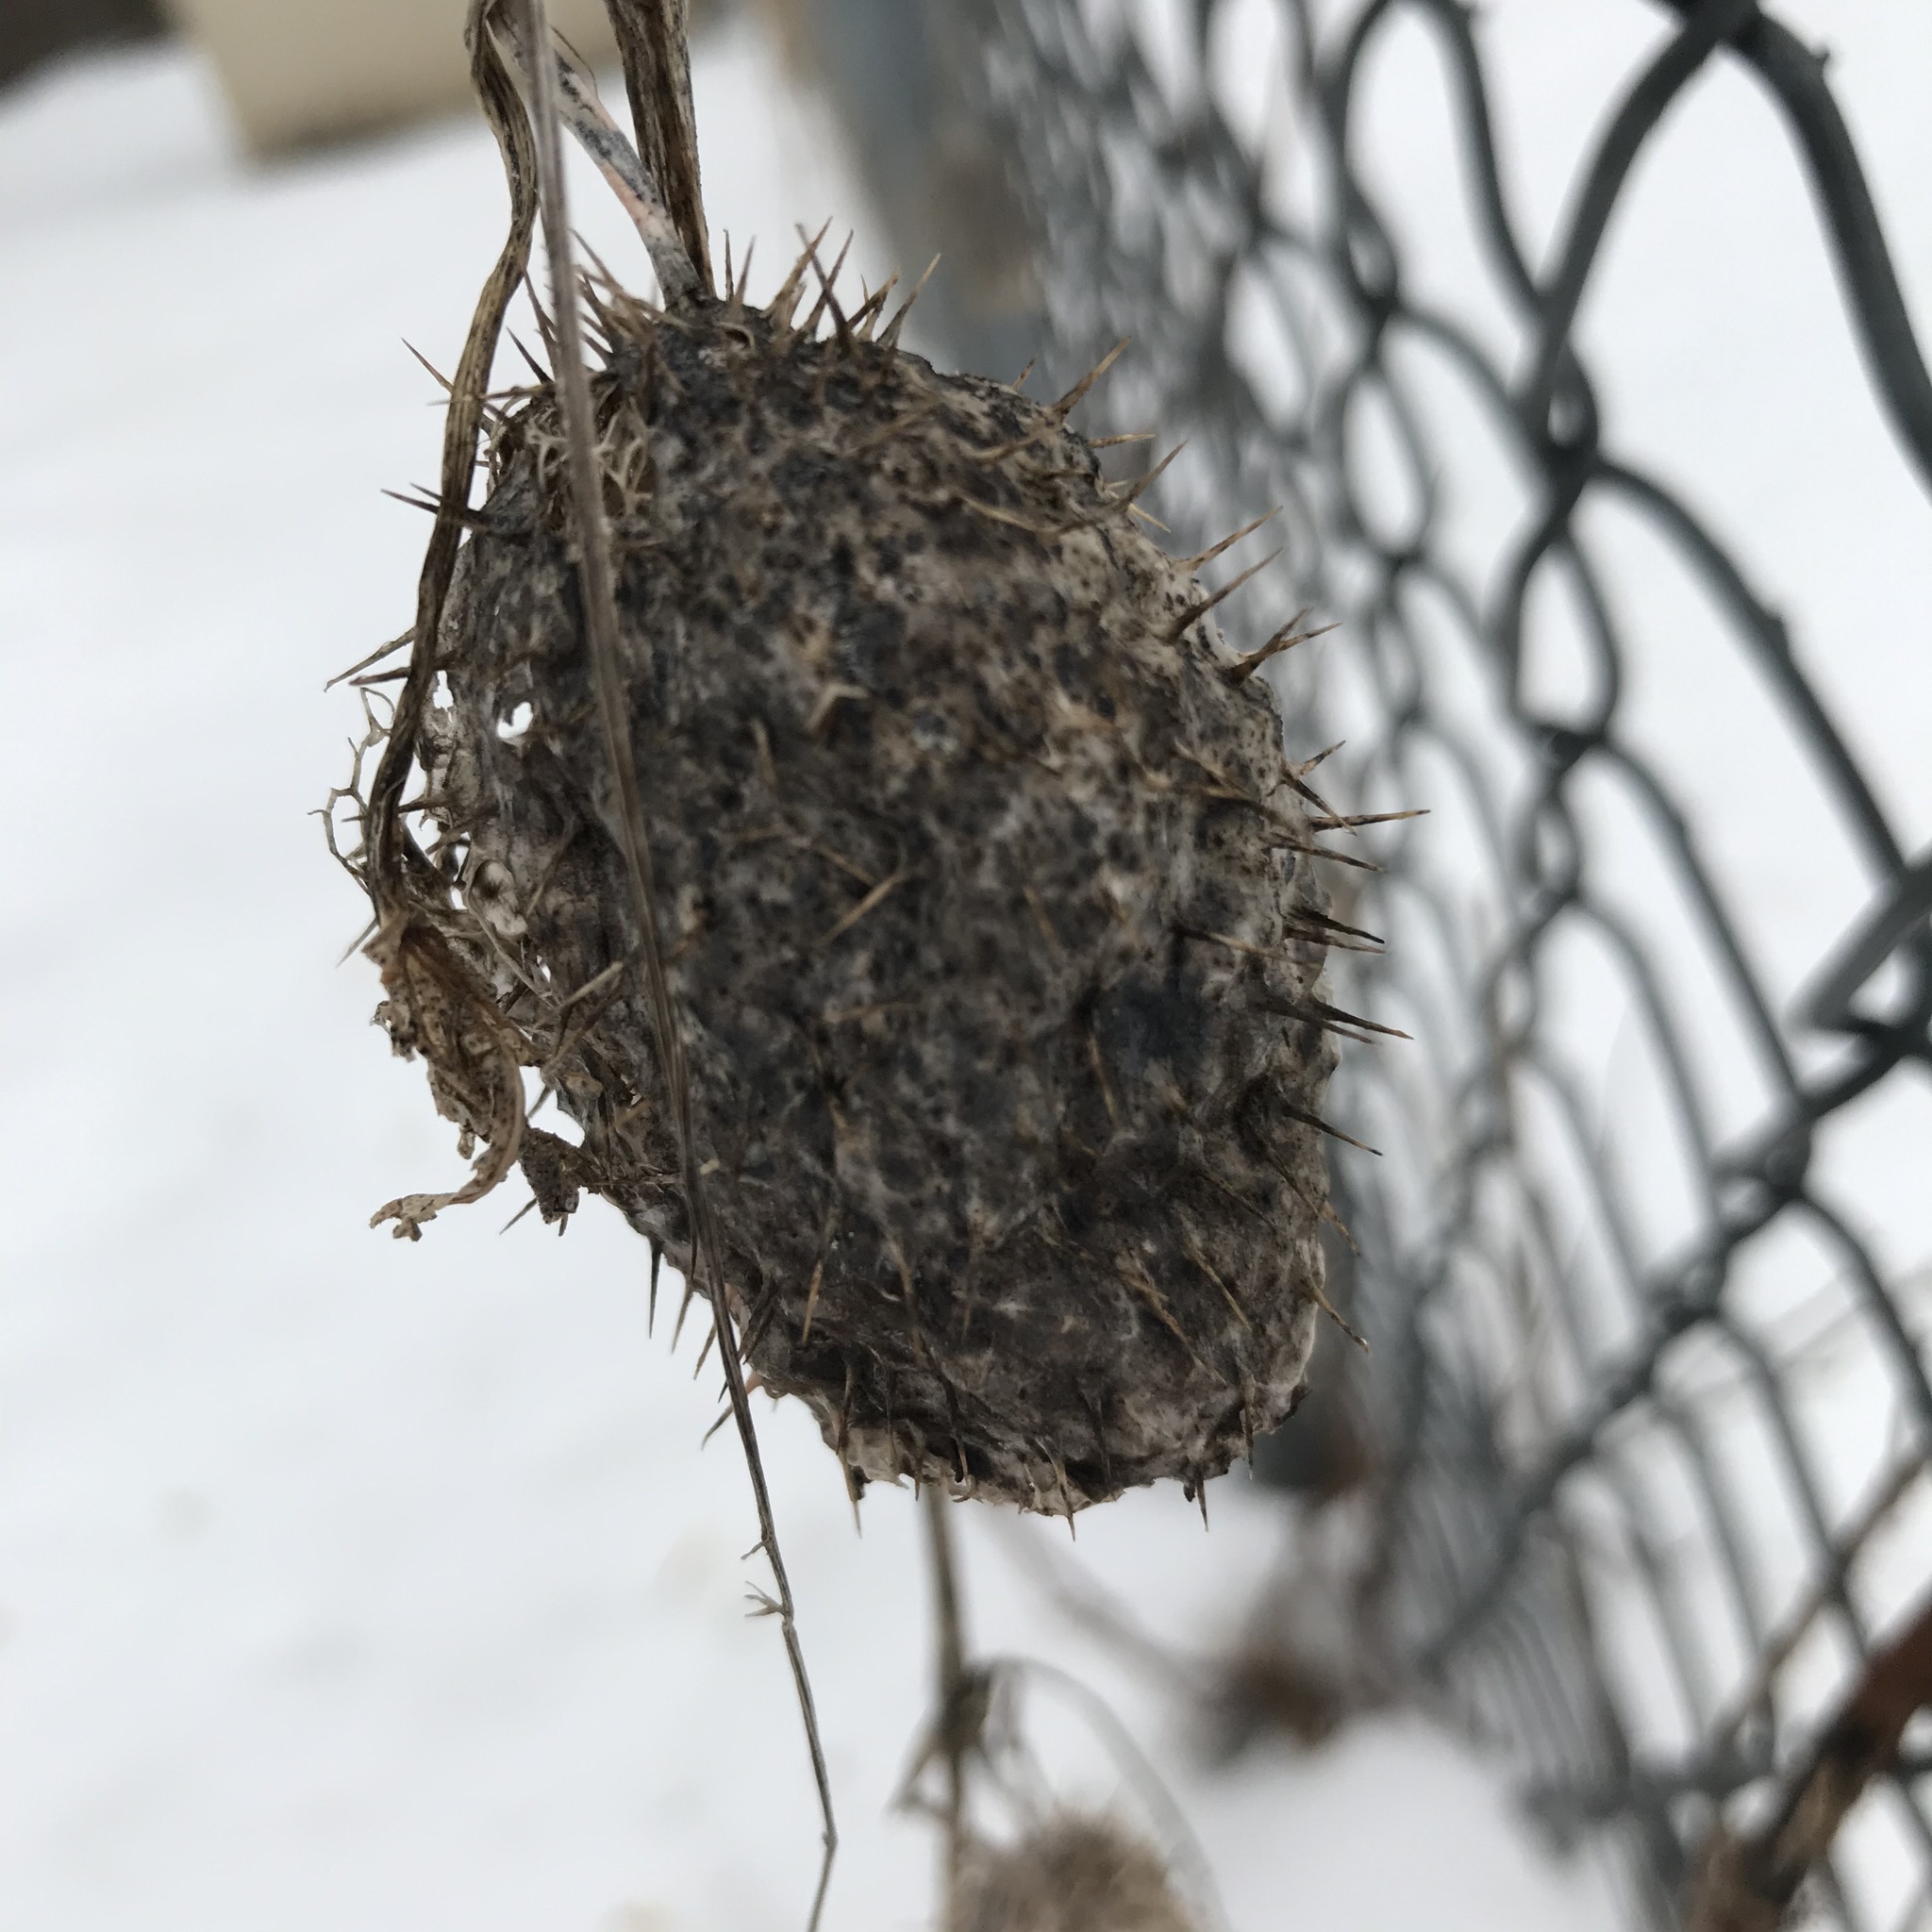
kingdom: Plantae
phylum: Tracheophyta
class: Magnoliopsida
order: Cucurbitales
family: Cucurbitaceae
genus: Echinocystis
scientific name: Echinocystis lobata
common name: Wild cucumber
